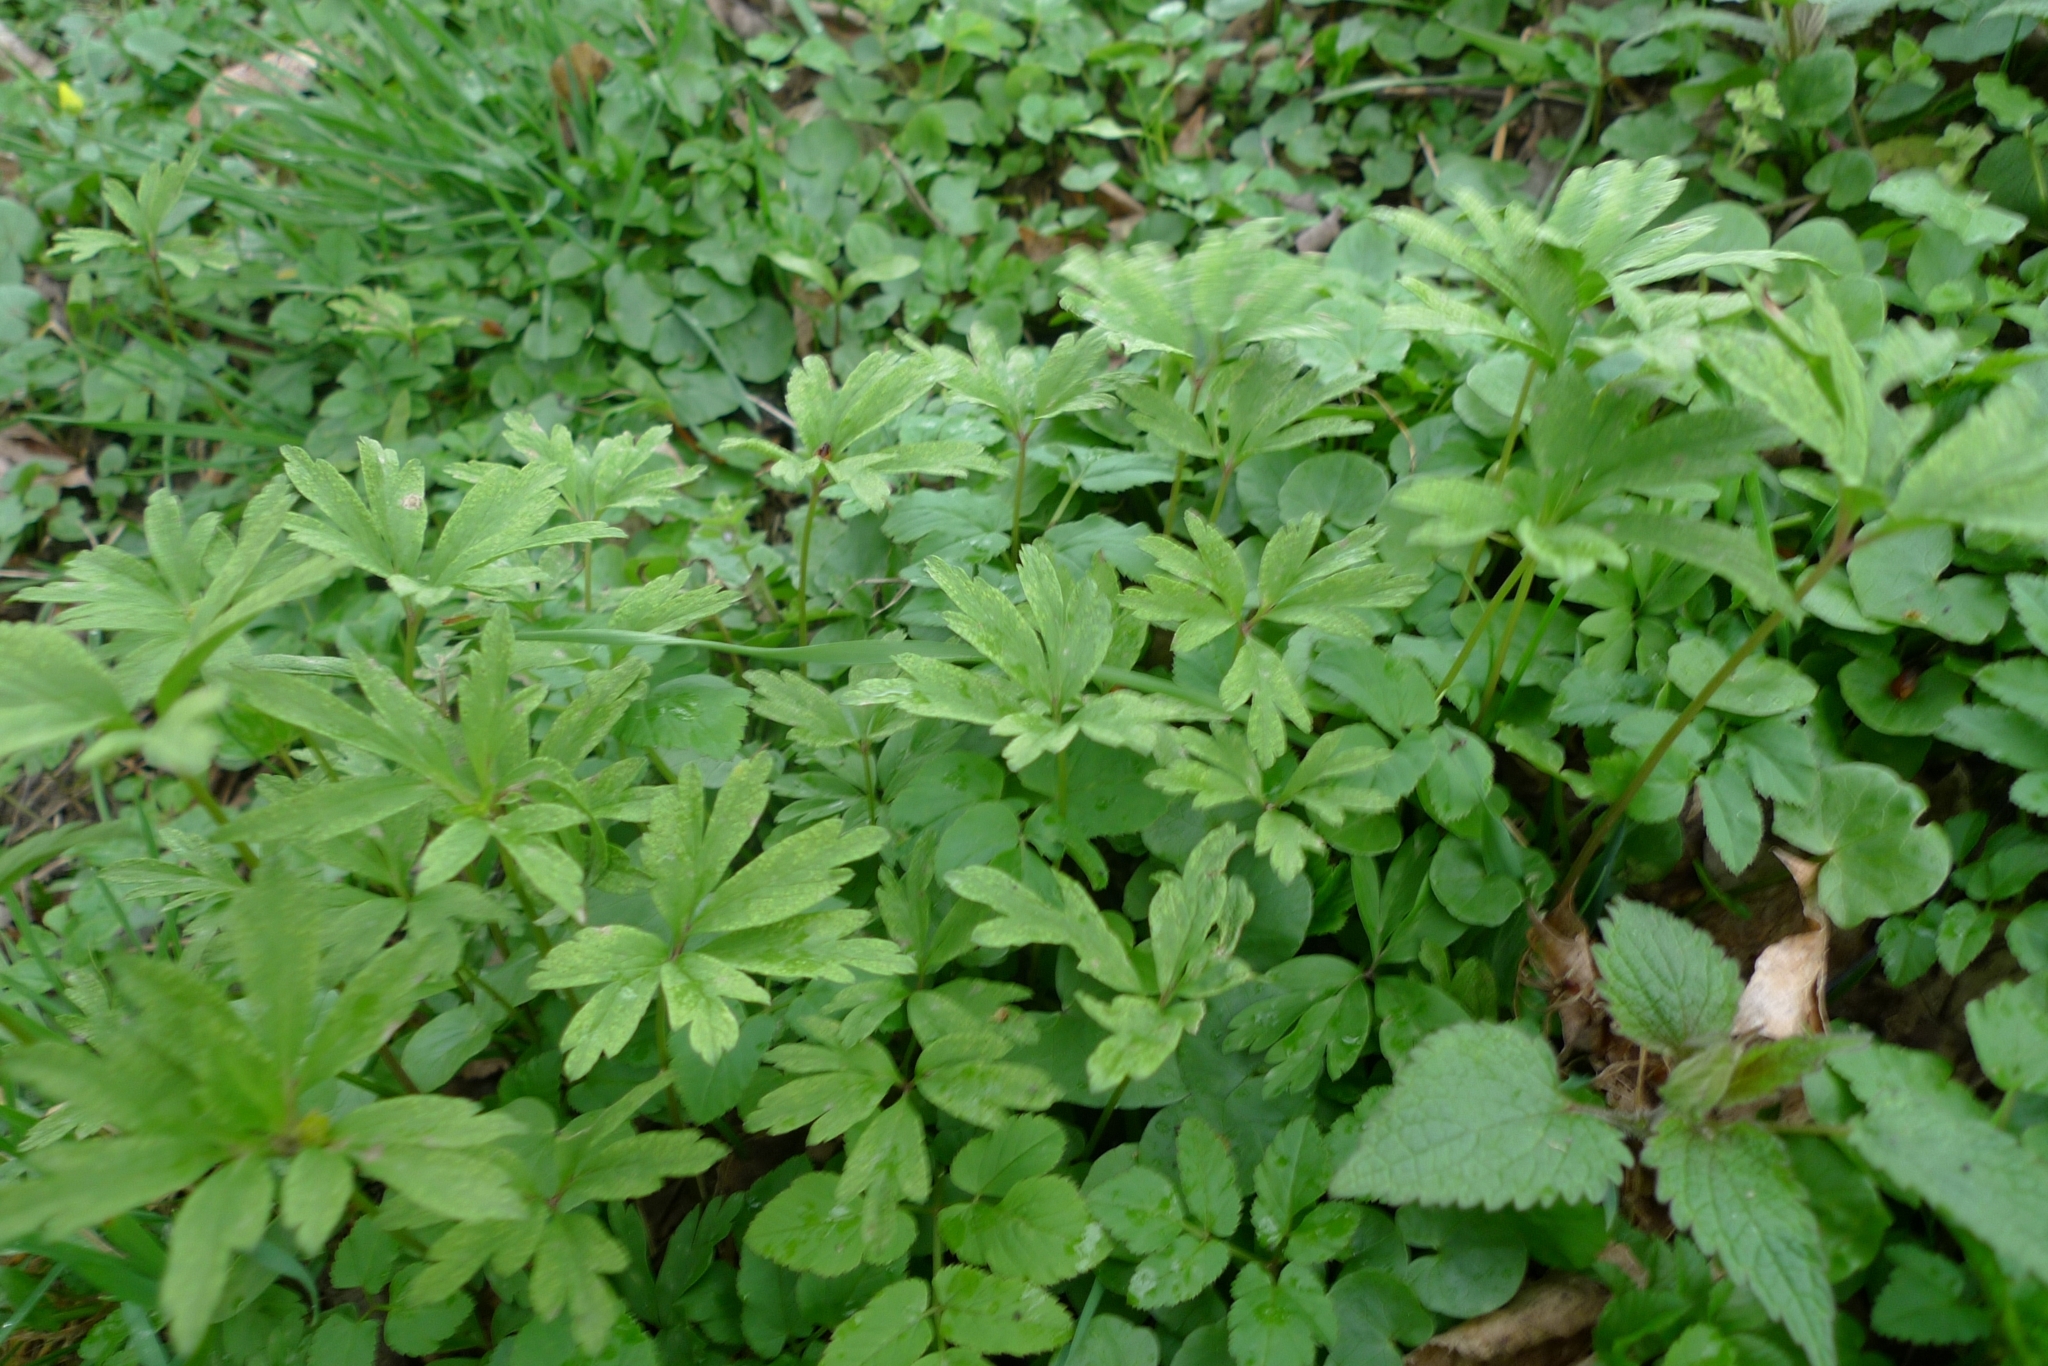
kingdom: Fungi
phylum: Basidiomycota
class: Pucciniomycetes
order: Pucciniales
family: Tranzscheliaceae
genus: Tranzschelia
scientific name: Tranzschelia pruni-spinosae
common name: Blackthorn rust
